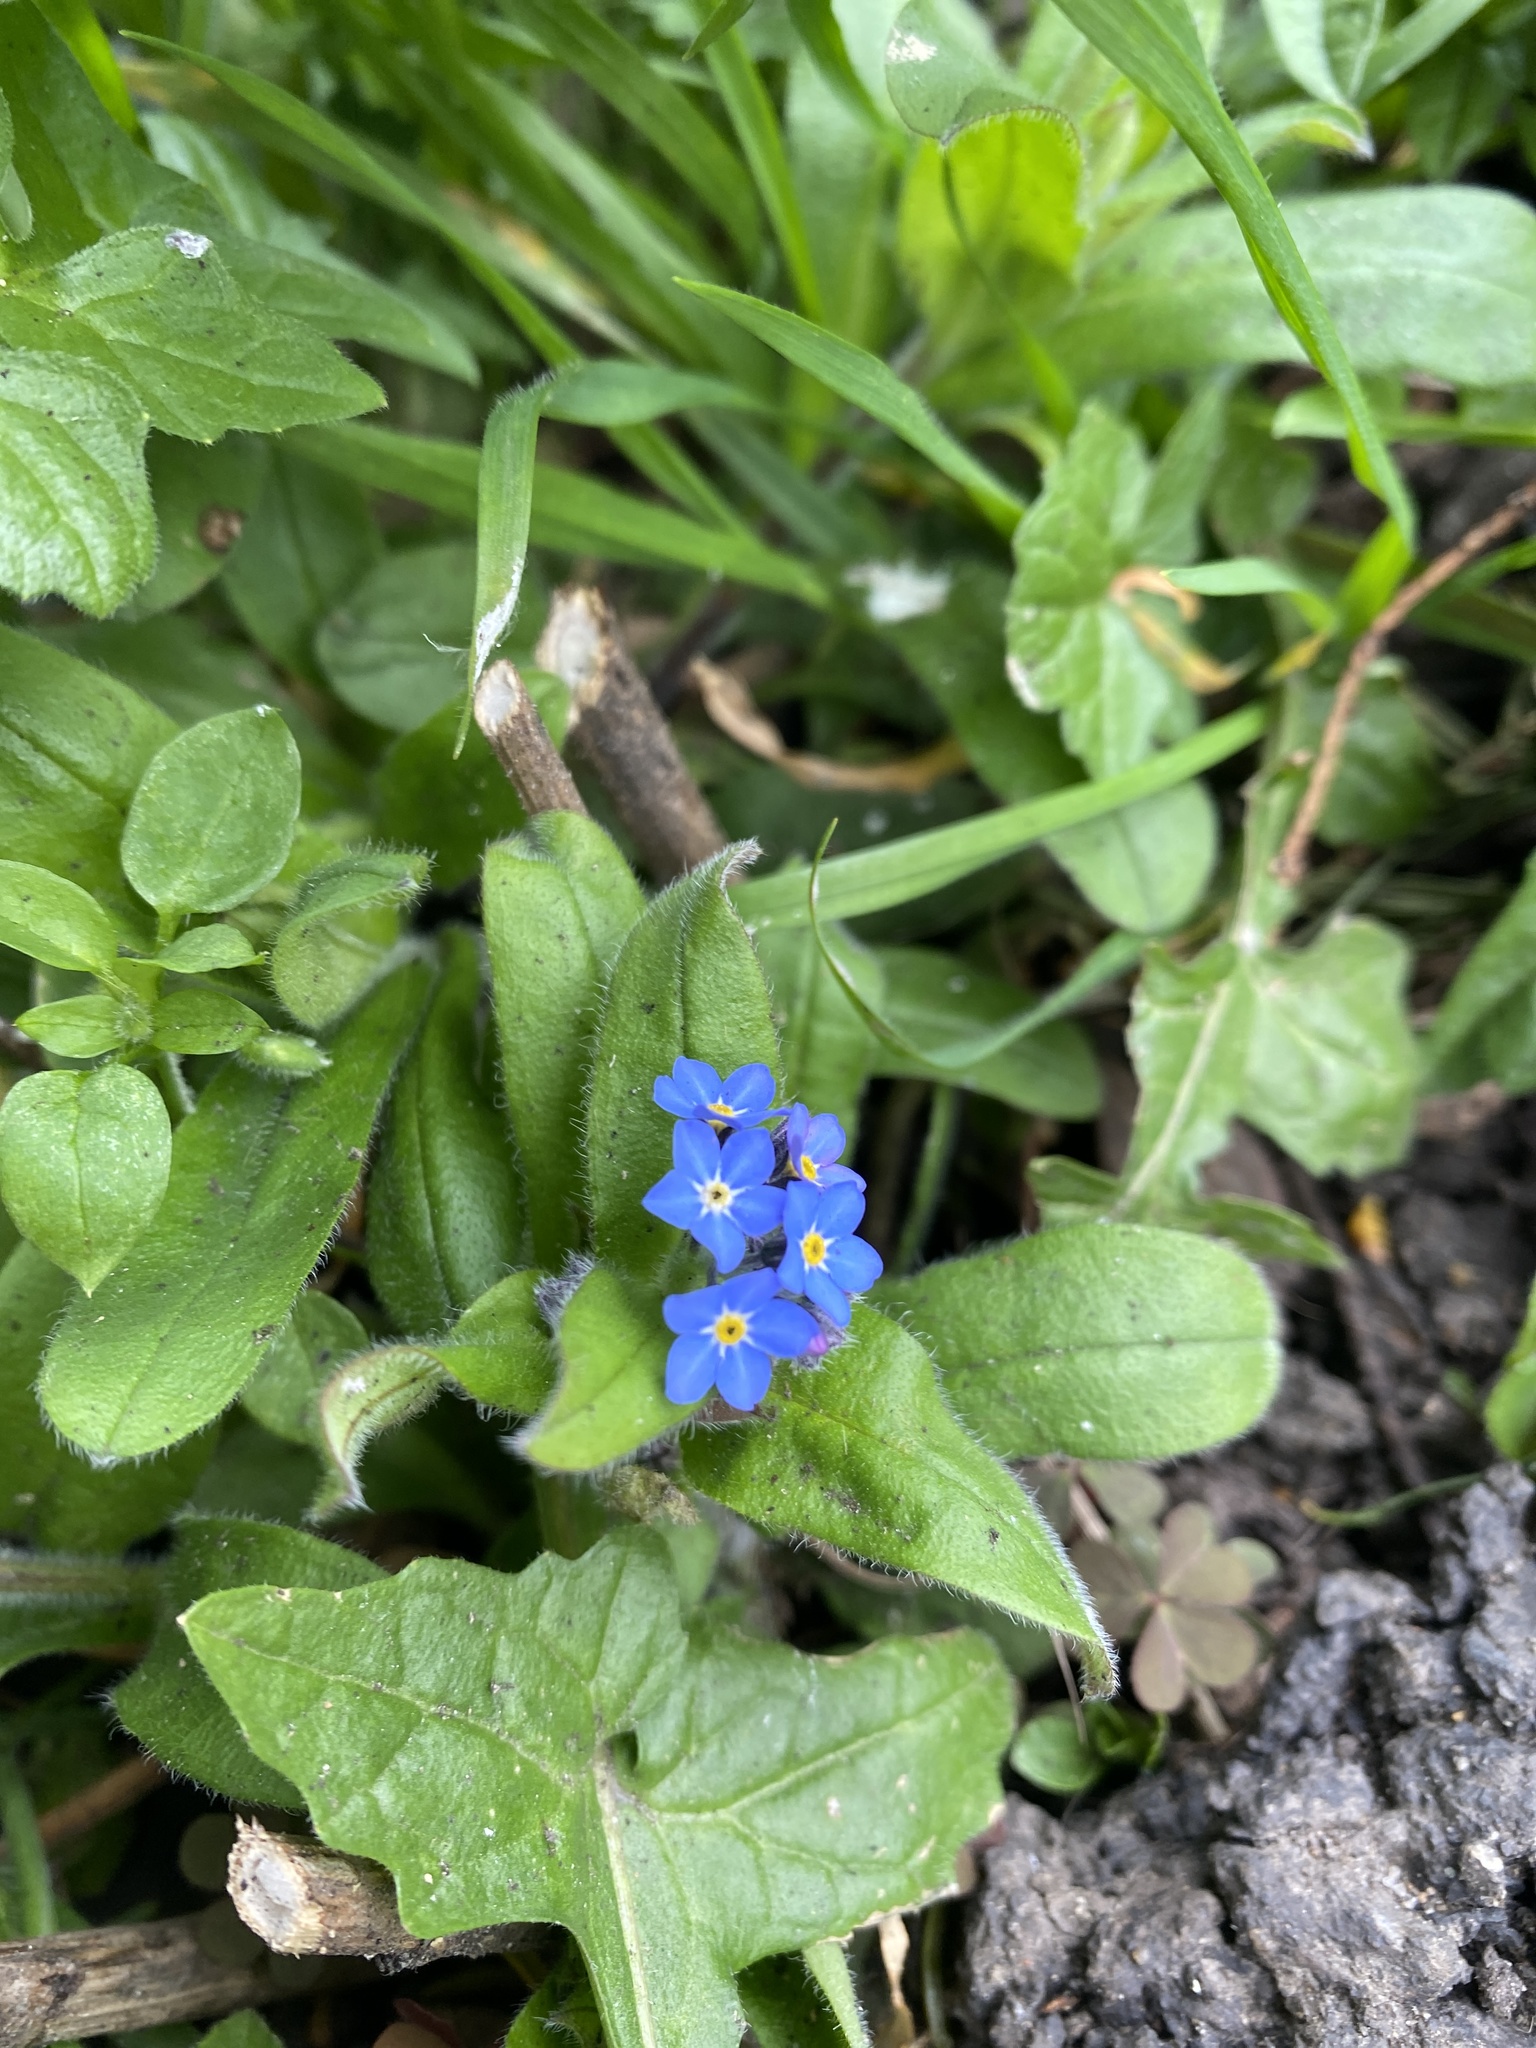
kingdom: Plantae
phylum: Tracheophyta
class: Magnoliopsida
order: Boraginales
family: Boraginaceae
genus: Myosotis
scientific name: Myosotis sylvatica
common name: Wood forget-me-not
